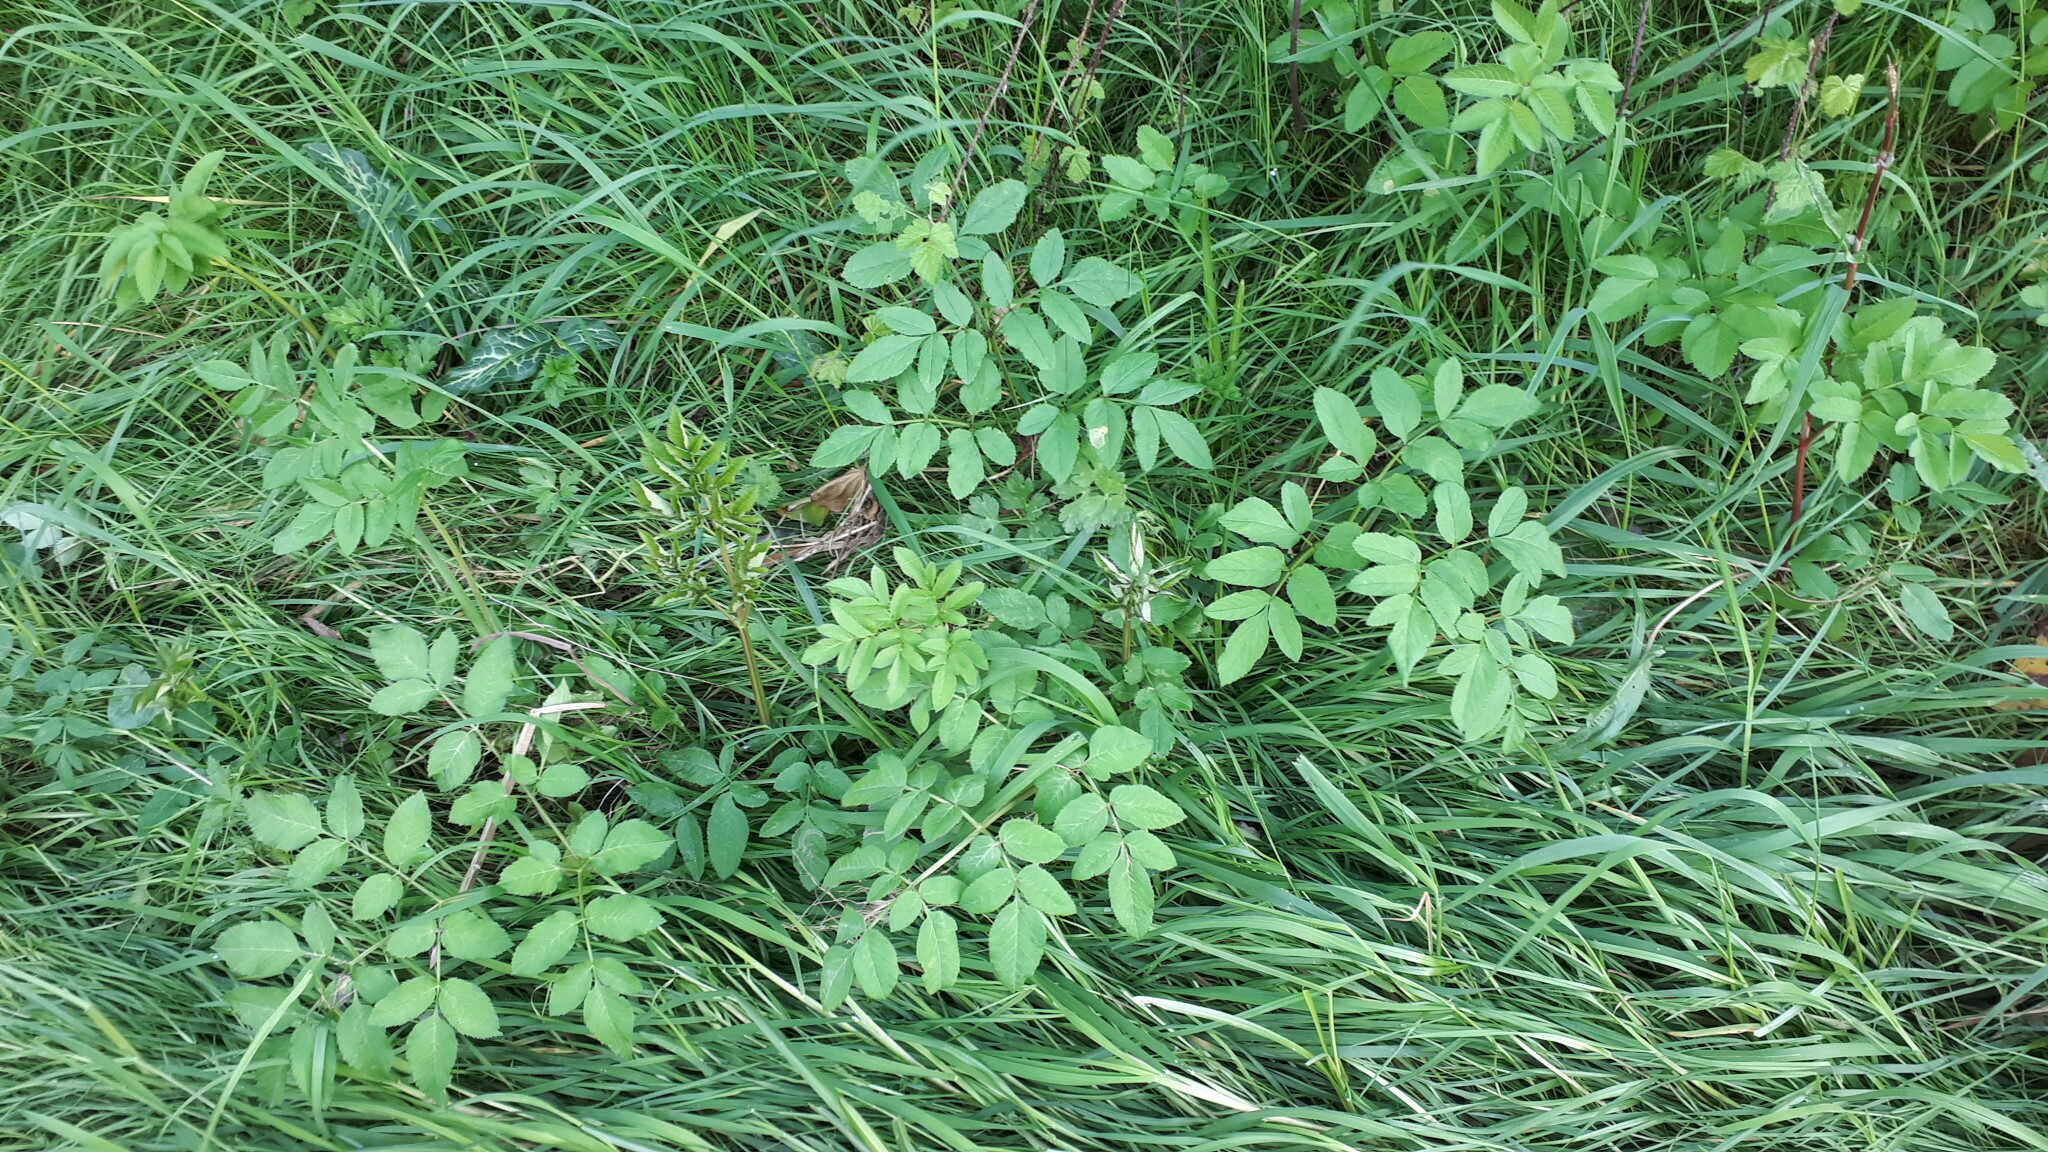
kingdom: Plantae
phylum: Tracheophyta
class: Magnoliopsida
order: Apiales
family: Apiaceae
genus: Angelica
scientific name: Angelica sylvestris
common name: Wild angelica
